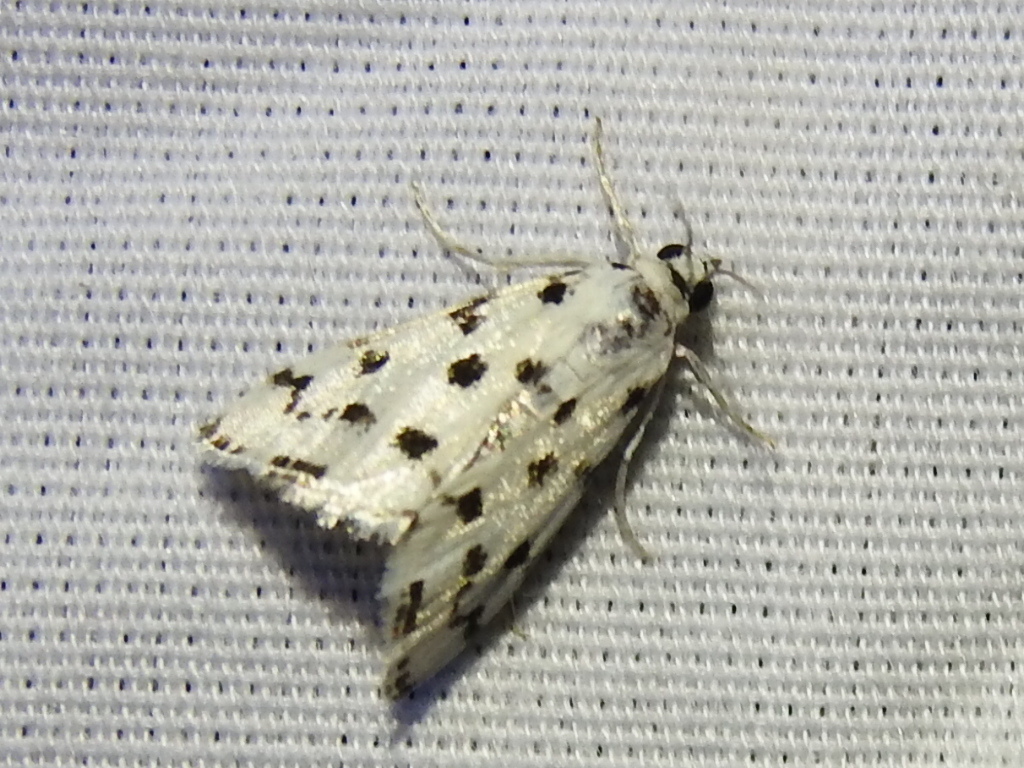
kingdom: Animalia
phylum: Arthropoda
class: Insecta
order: Lepidoptera
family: Crambidae
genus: Eustixia
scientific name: Eustixia pupula
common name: American cabbage pearl
